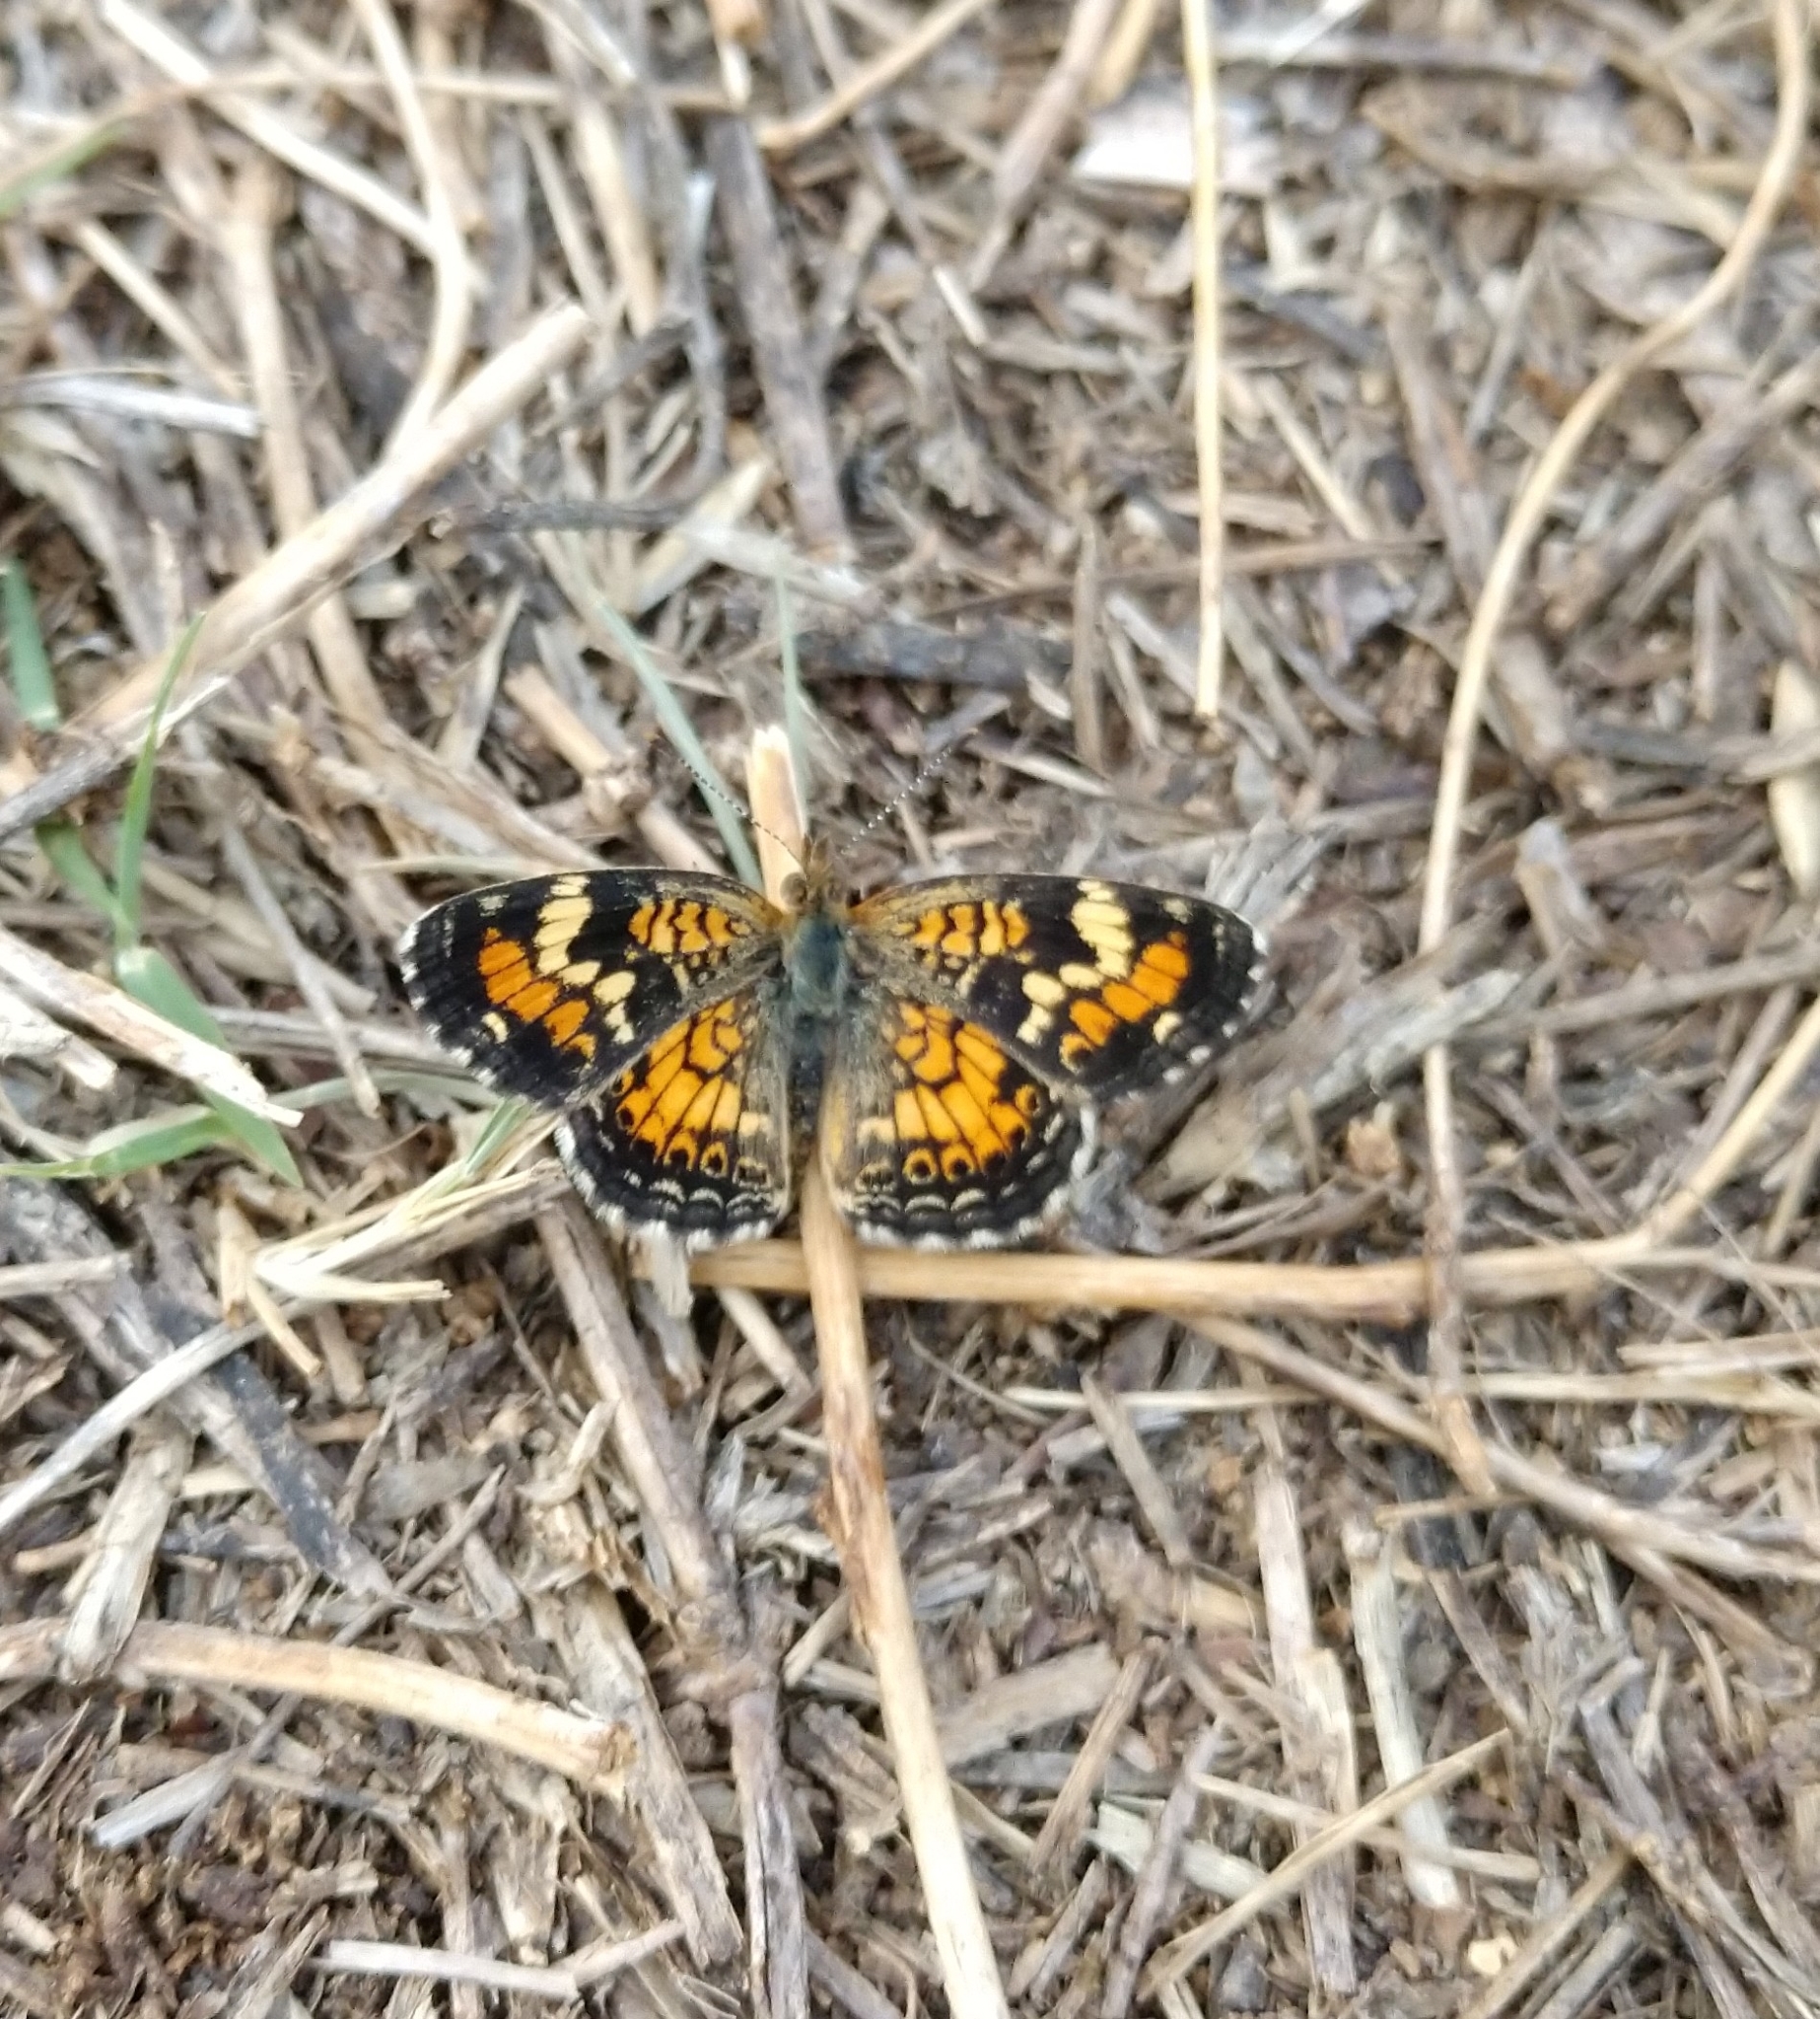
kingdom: Animalia
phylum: Arthropoda
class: Insecta
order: Lepidoptera
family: Nymphalidae
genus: Phyciodes
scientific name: Phyciodes phaon
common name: Phaon crescent
